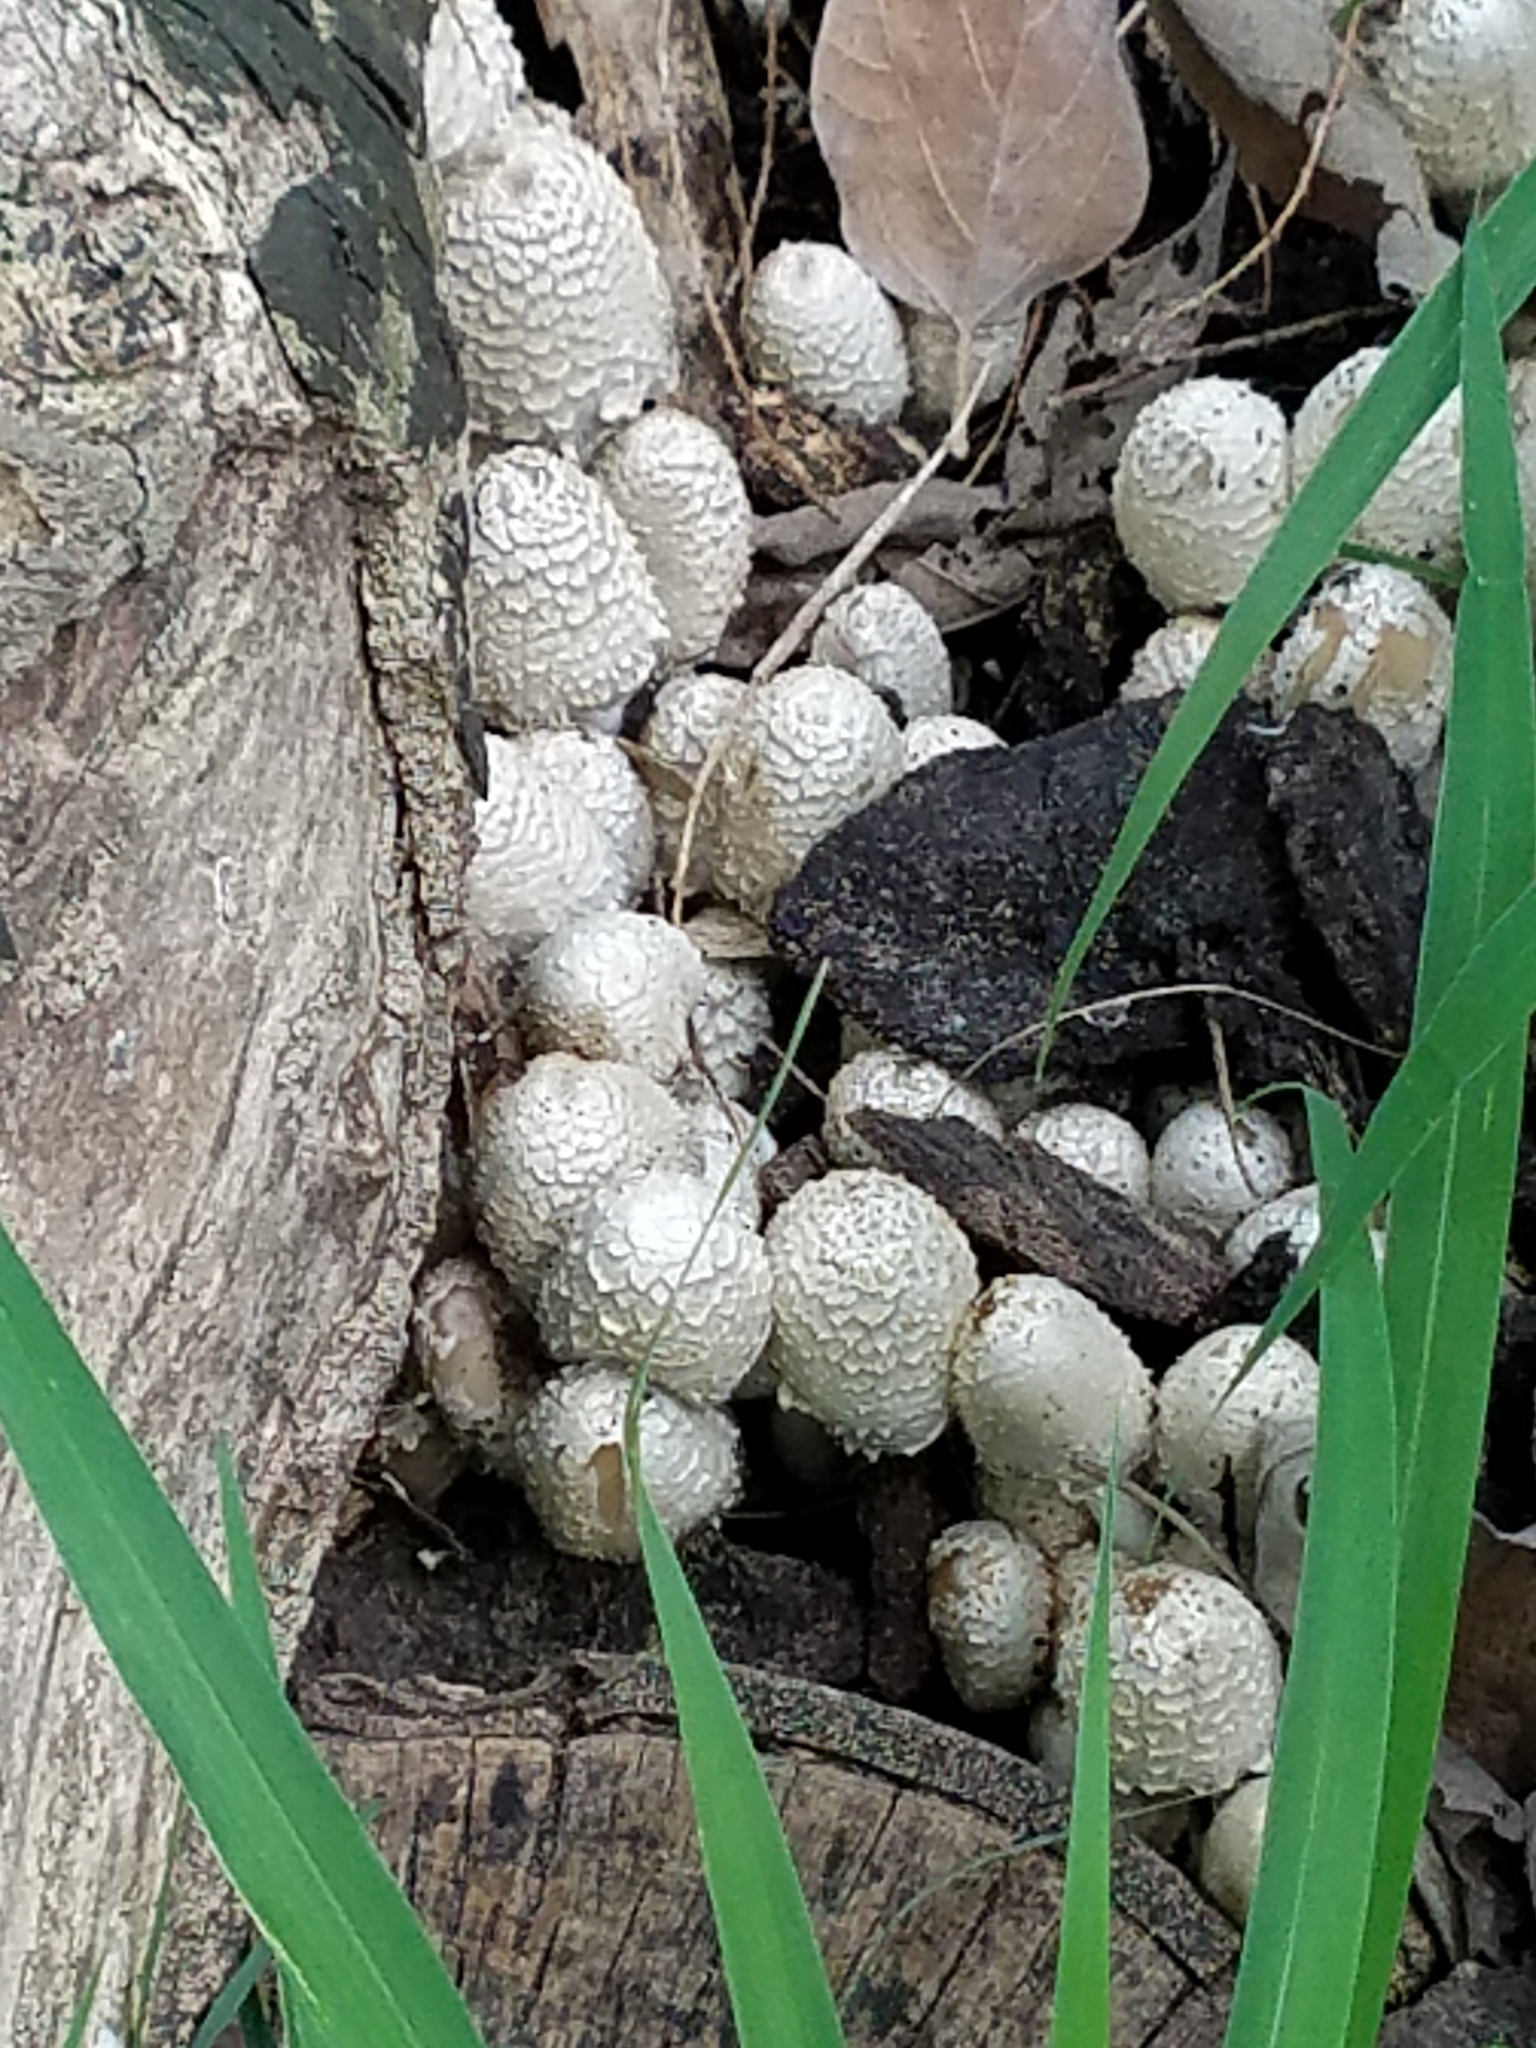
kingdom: Fungi
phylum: Basidiomycota
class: Agaricomycetes
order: Agaricales
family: Psathyrellaceae
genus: Coprinopsis
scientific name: Coprinopsis variegata
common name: Scaly ink cap
